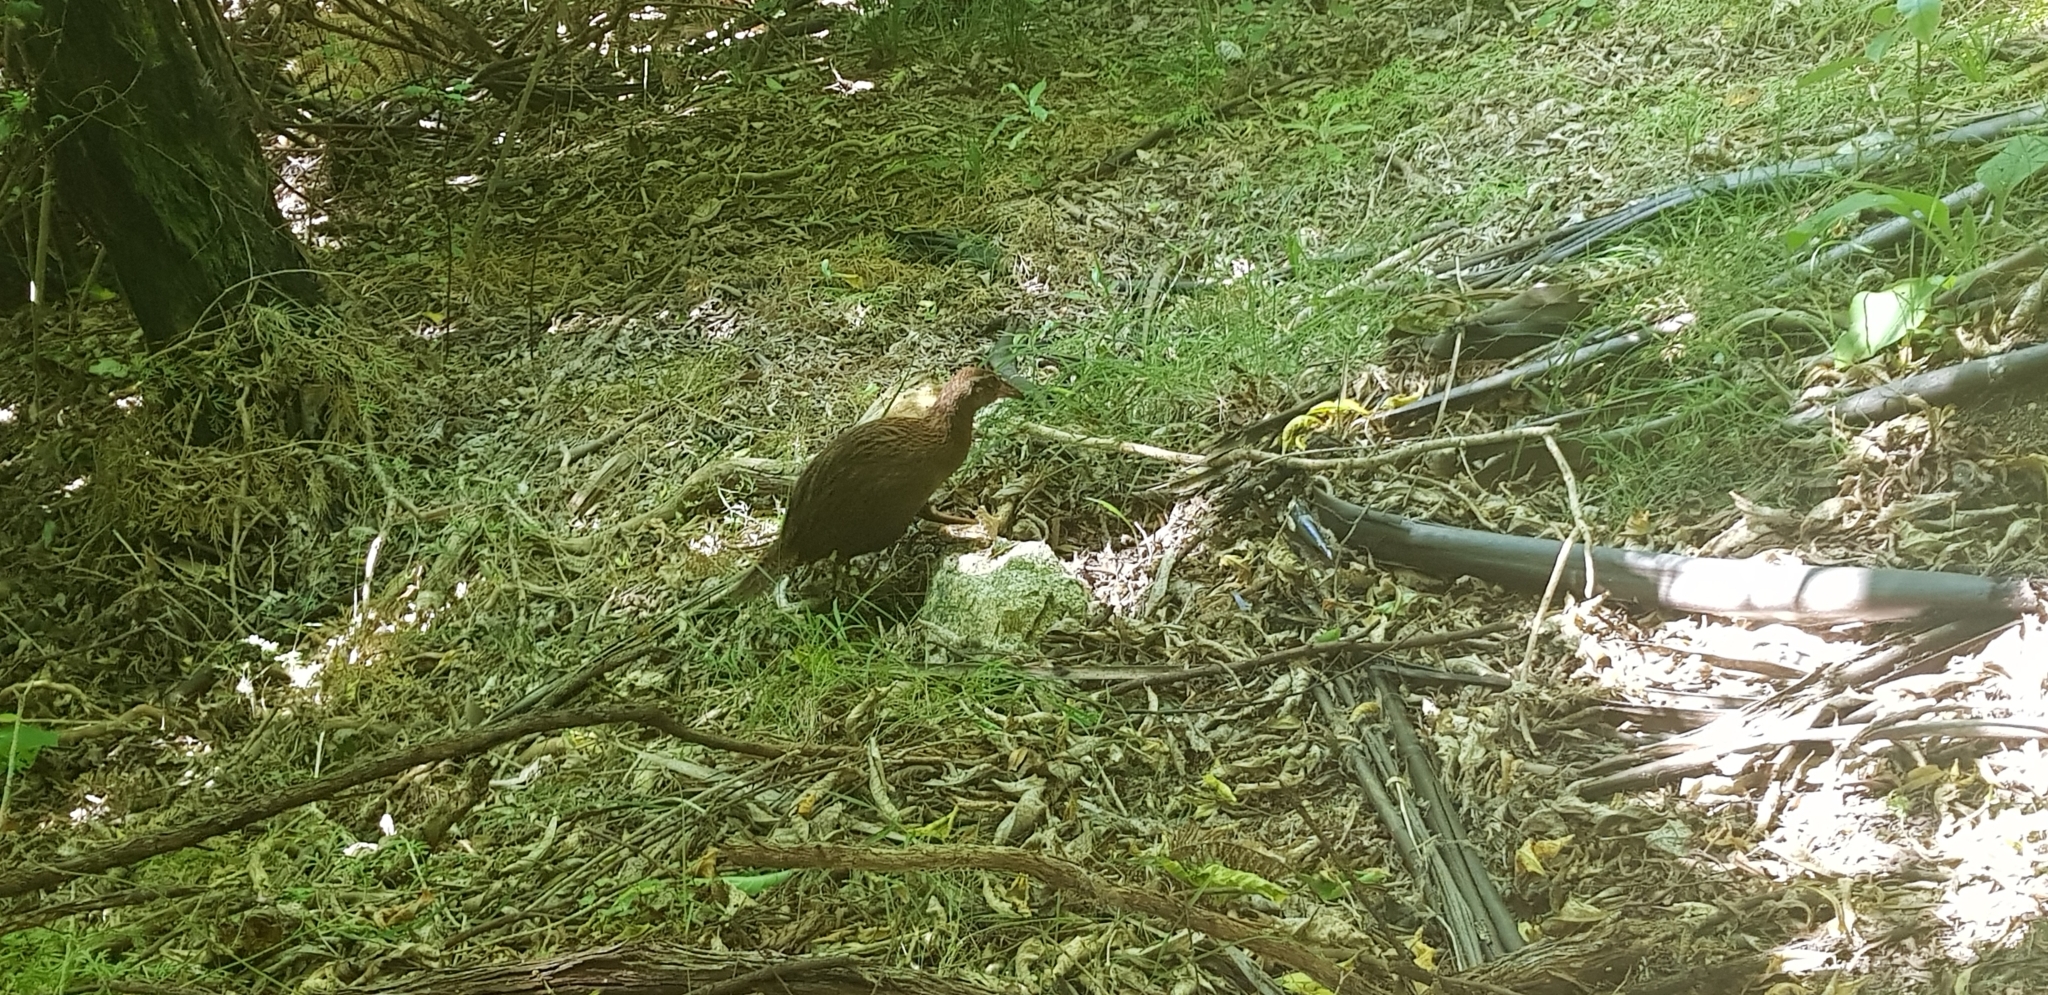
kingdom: Animalia
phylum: Chordata
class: Aves
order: Gruiformes
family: Rallidae
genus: Gallirallus
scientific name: Gallirallus australis
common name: Weka
